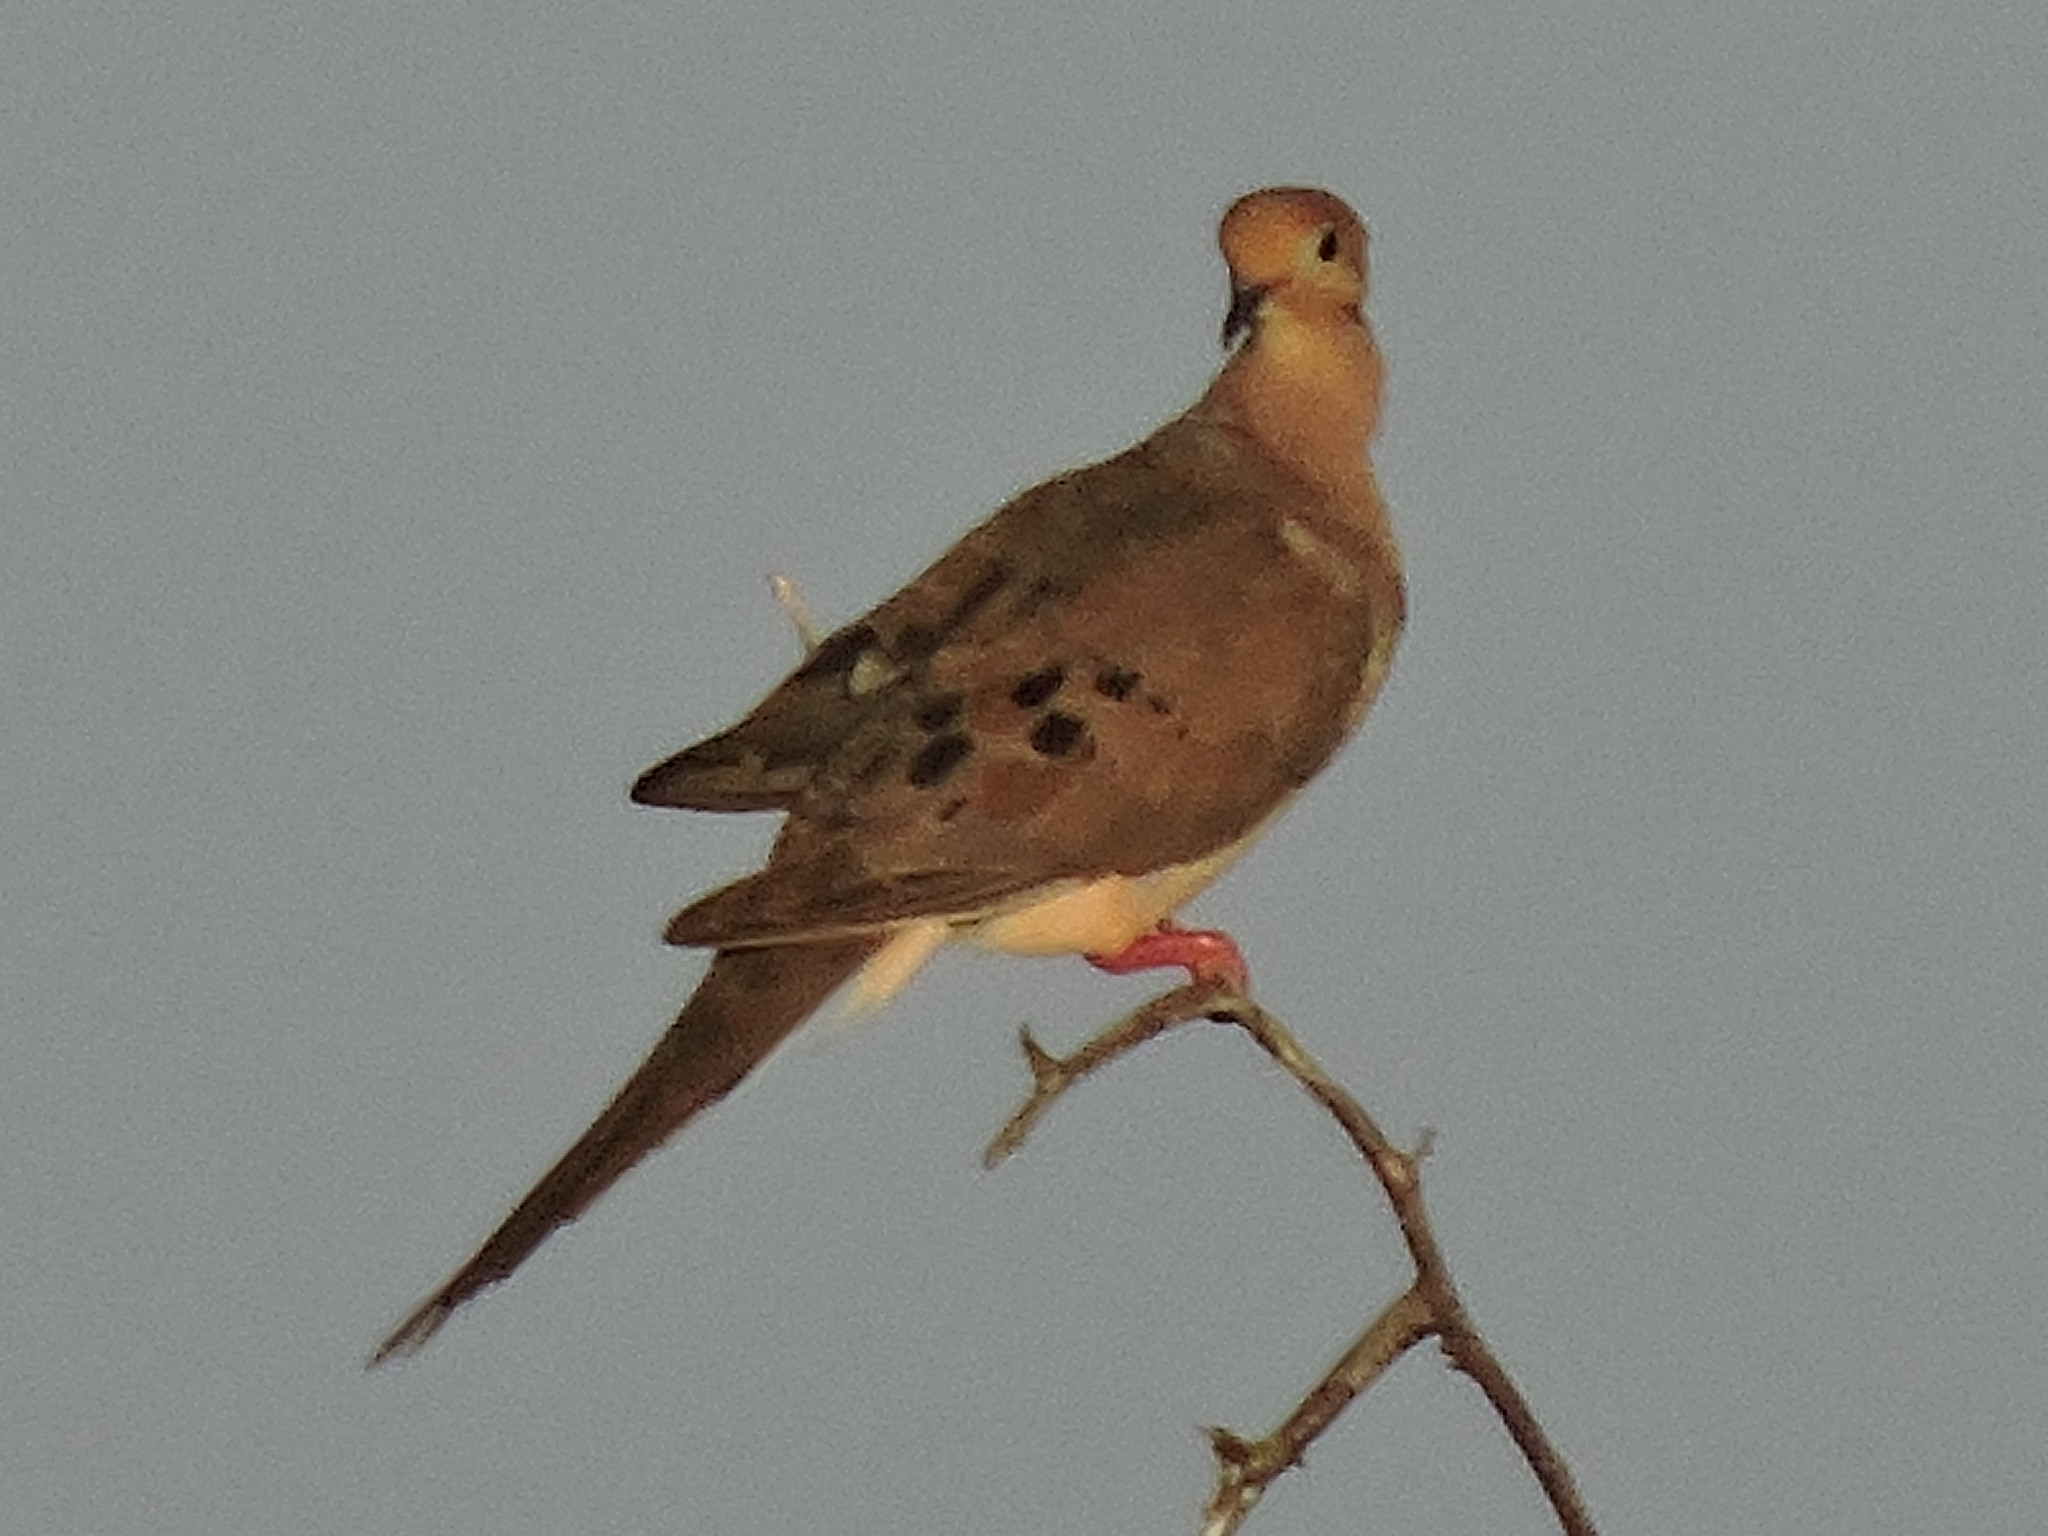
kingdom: Animalia
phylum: Chordata
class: Aves
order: Columbiformes
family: Columbidae
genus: Zenaida
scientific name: Zenaida macroura
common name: Mourning dove
